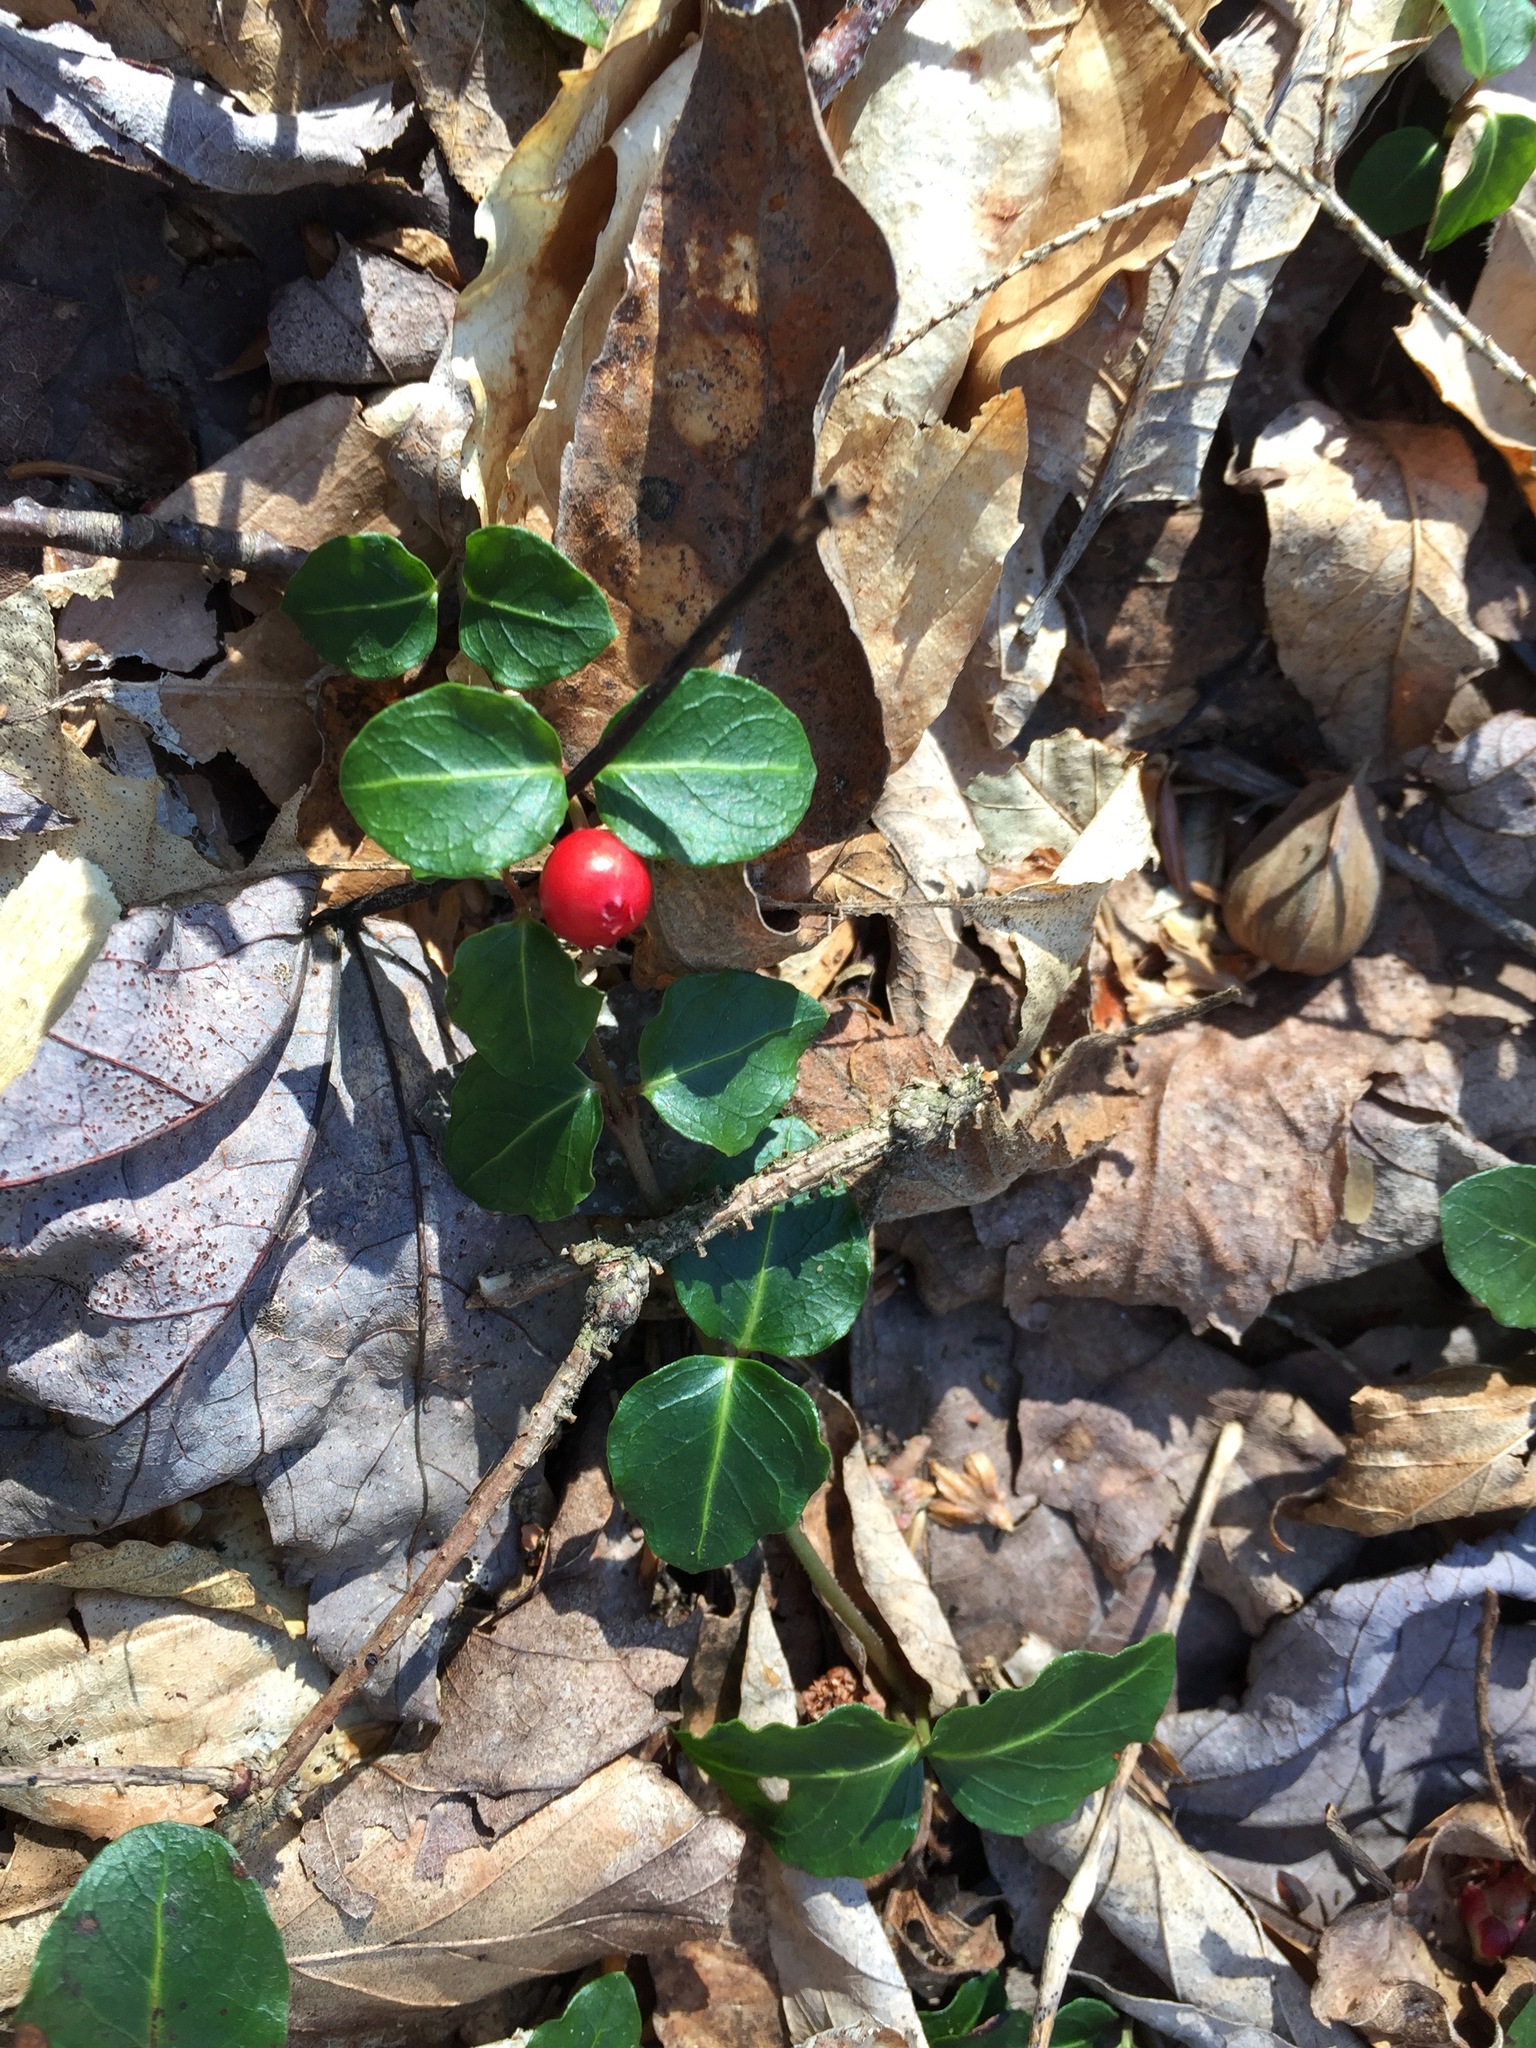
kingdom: Plantae
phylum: Tracheophyta
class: Magnoliopsida
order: Gentianales
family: Rubiaceae
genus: Mitchella
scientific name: Mitchella repens
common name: Partridge-berry
